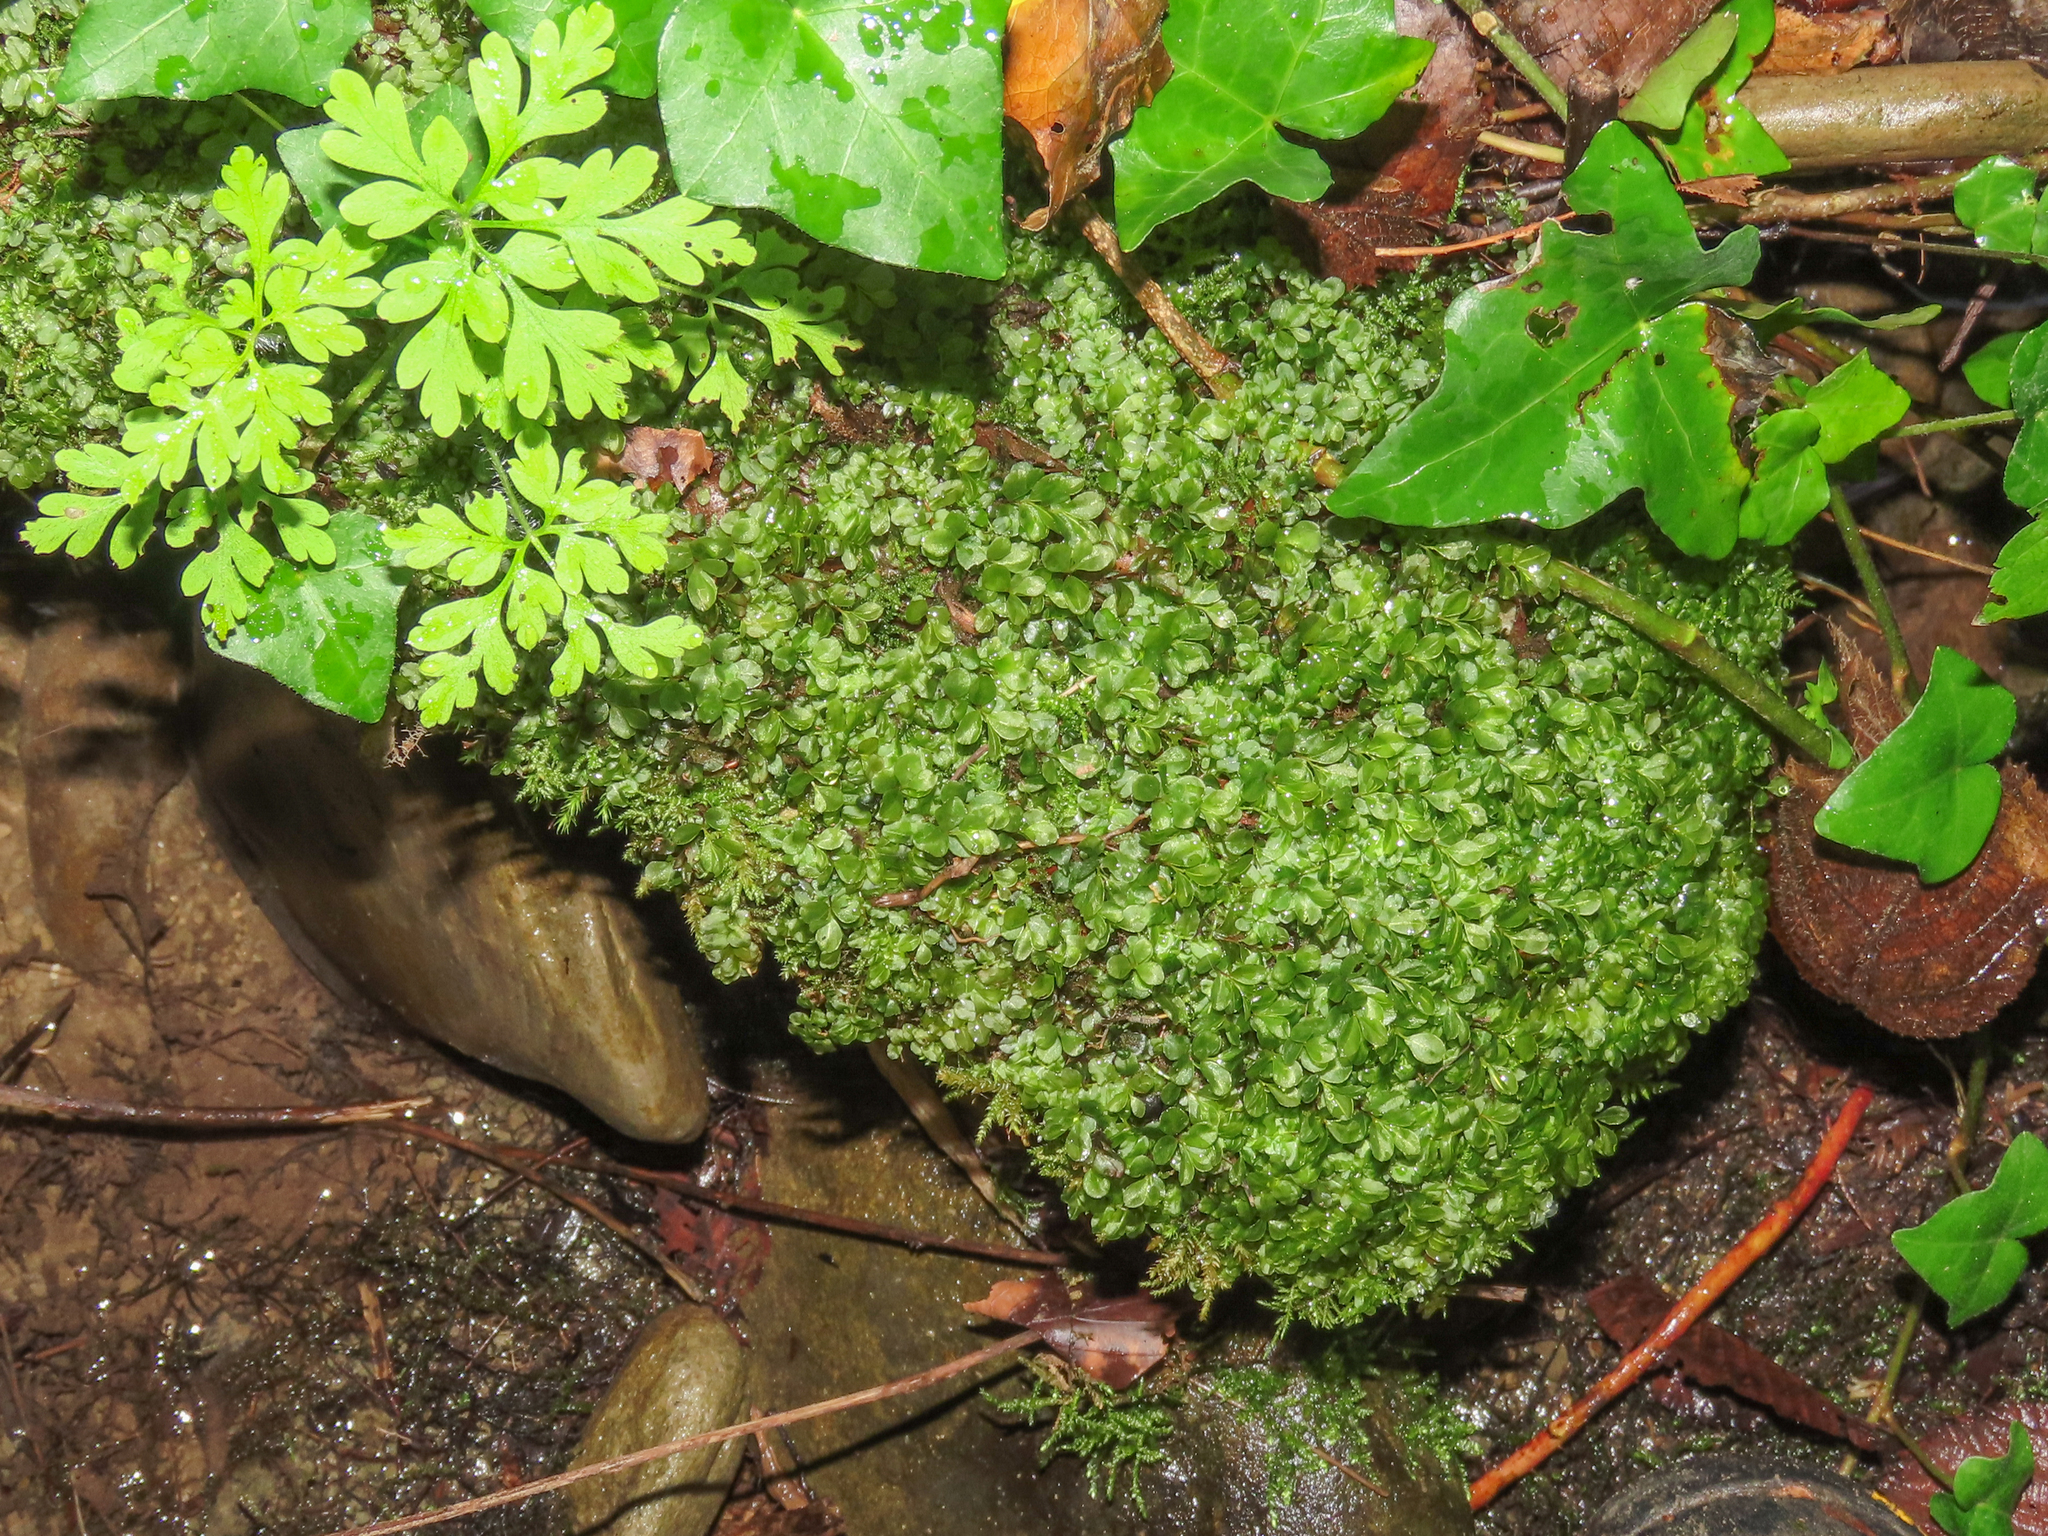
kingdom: Plantae
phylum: Bryophyta
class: Bryopsida
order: Bryales
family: Mniaceae
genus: Rhizomnium
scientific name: Rhizomnium punctatum
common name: Dotted leafy moss
